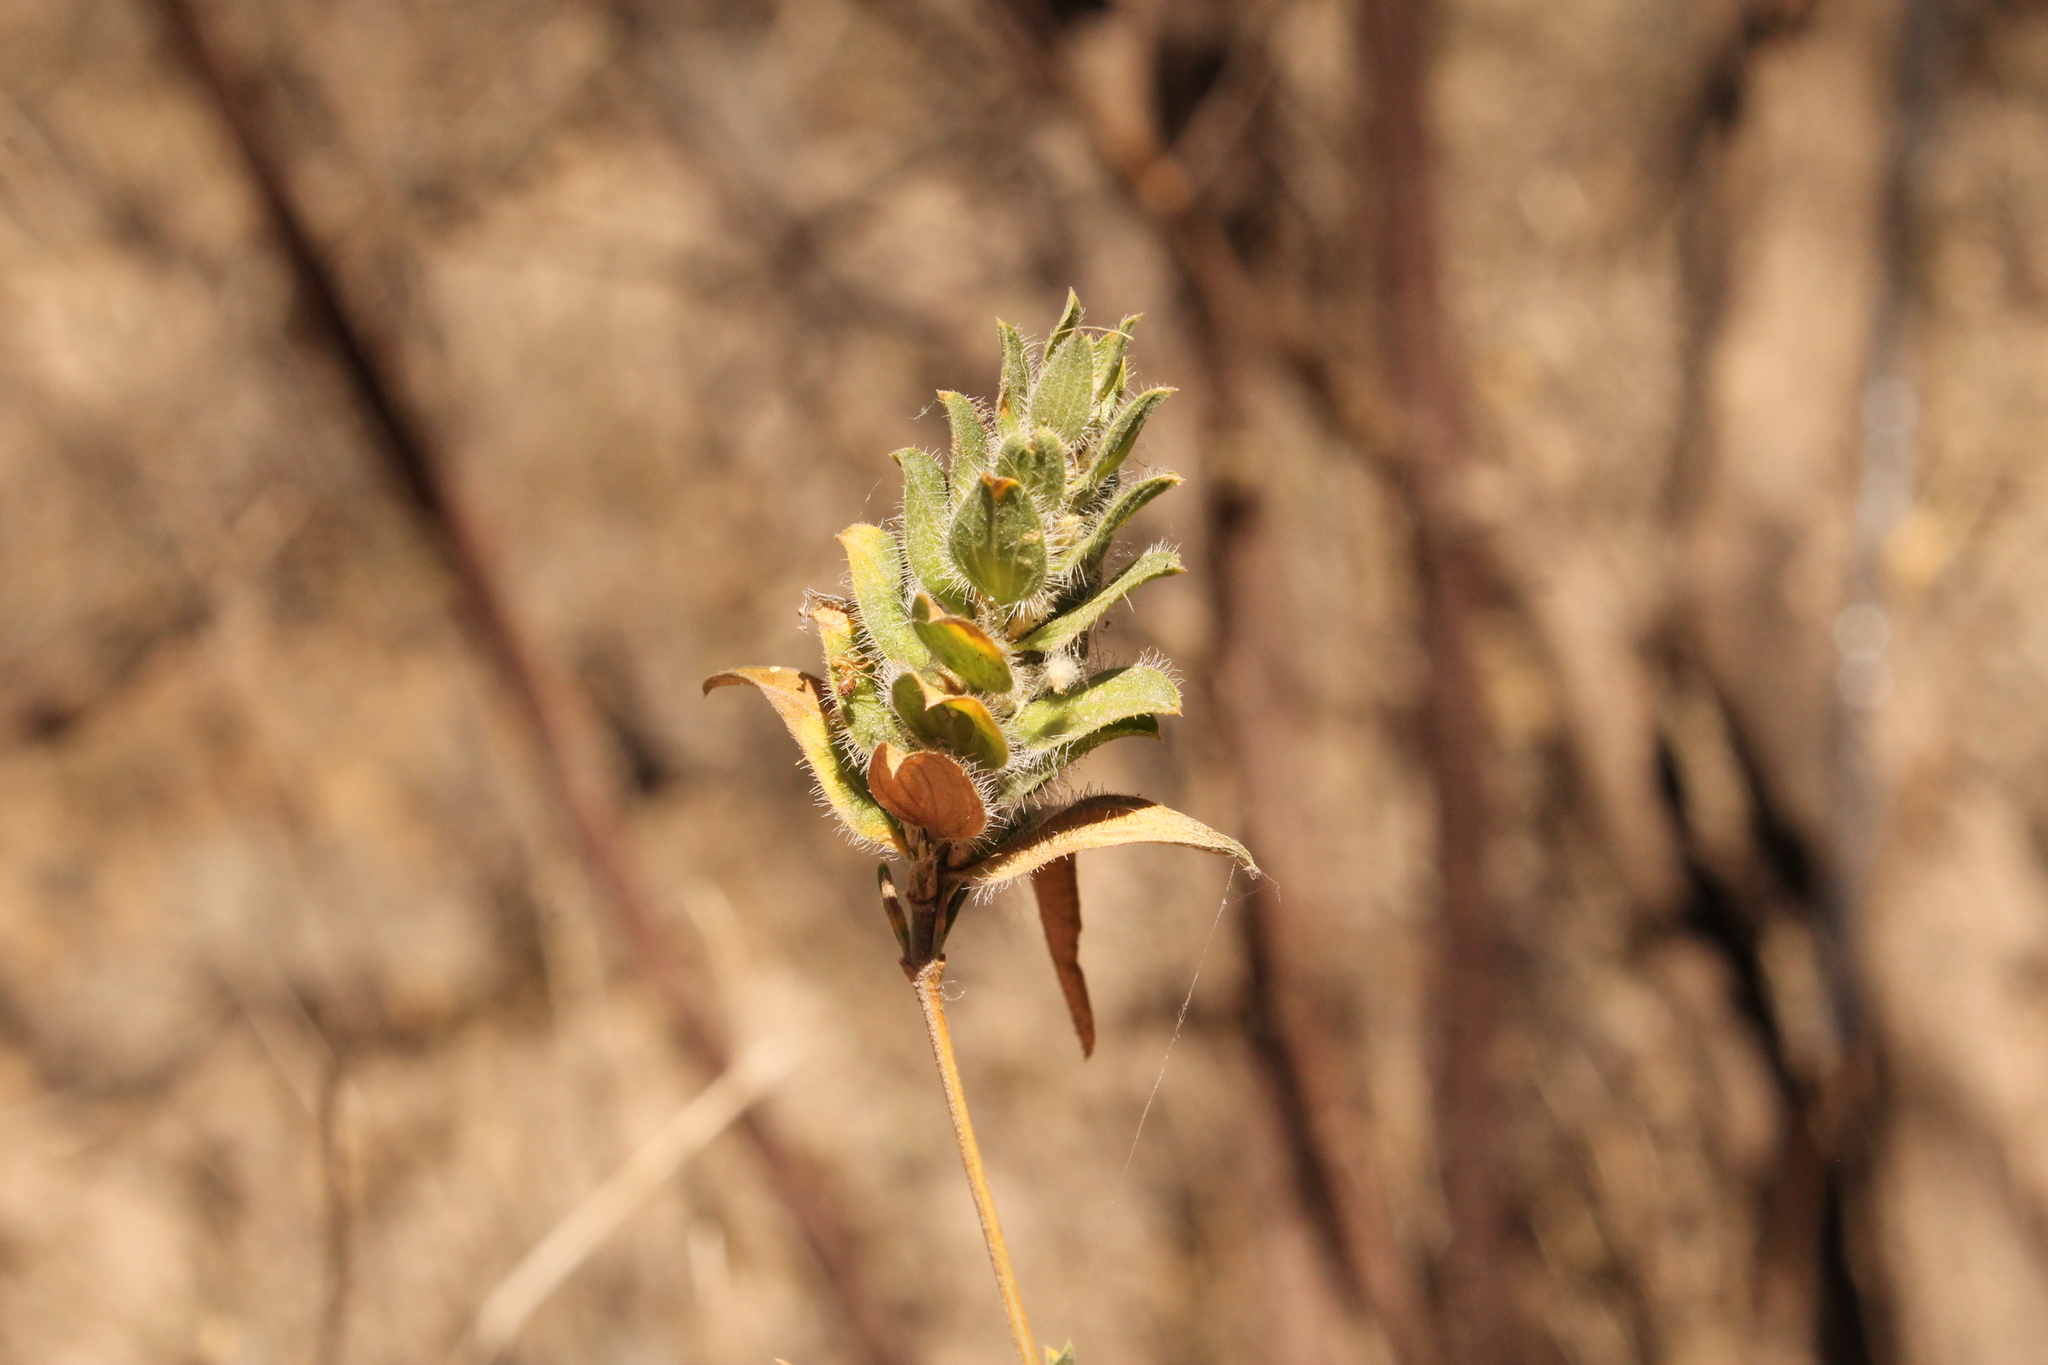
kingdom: Plantae
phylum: Tracheophyta
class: Magnoliopsida
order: Lamiales
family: Acanthaceae
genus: Tetramerium
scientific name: Tetramerium nervosum
